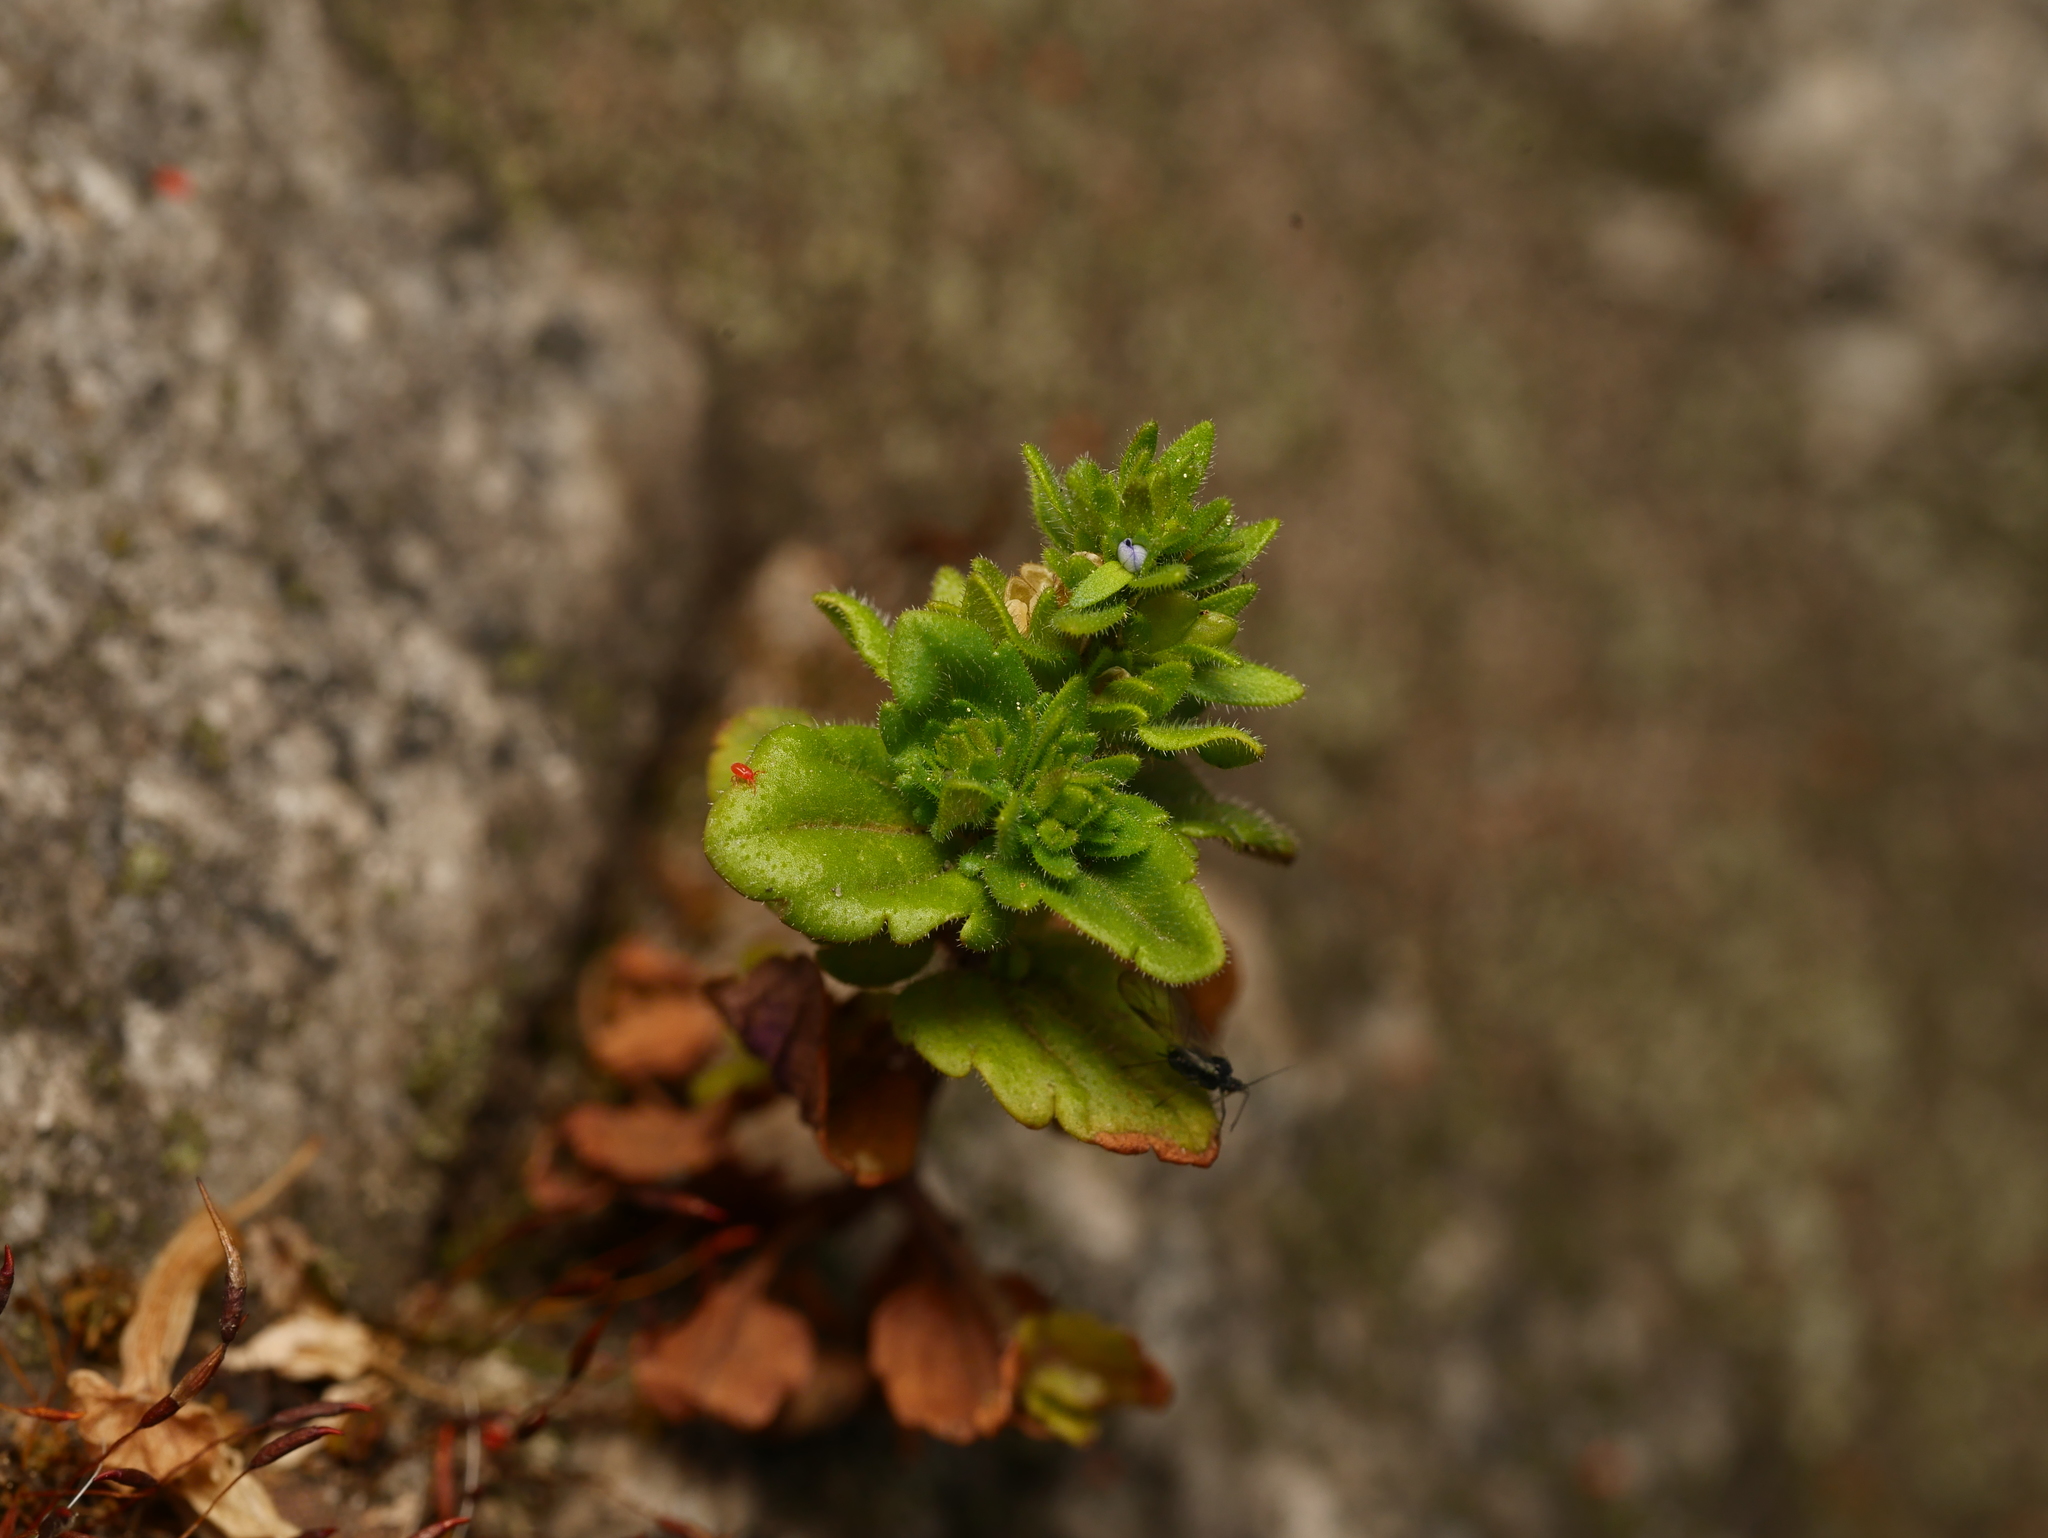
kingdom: Plantae
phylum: Tracheophyta
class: Magnoliopsida
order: Lamiales
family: Plantaginaceae
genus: Veronica
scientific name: Veronica arvensis
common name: Corn speedwell
